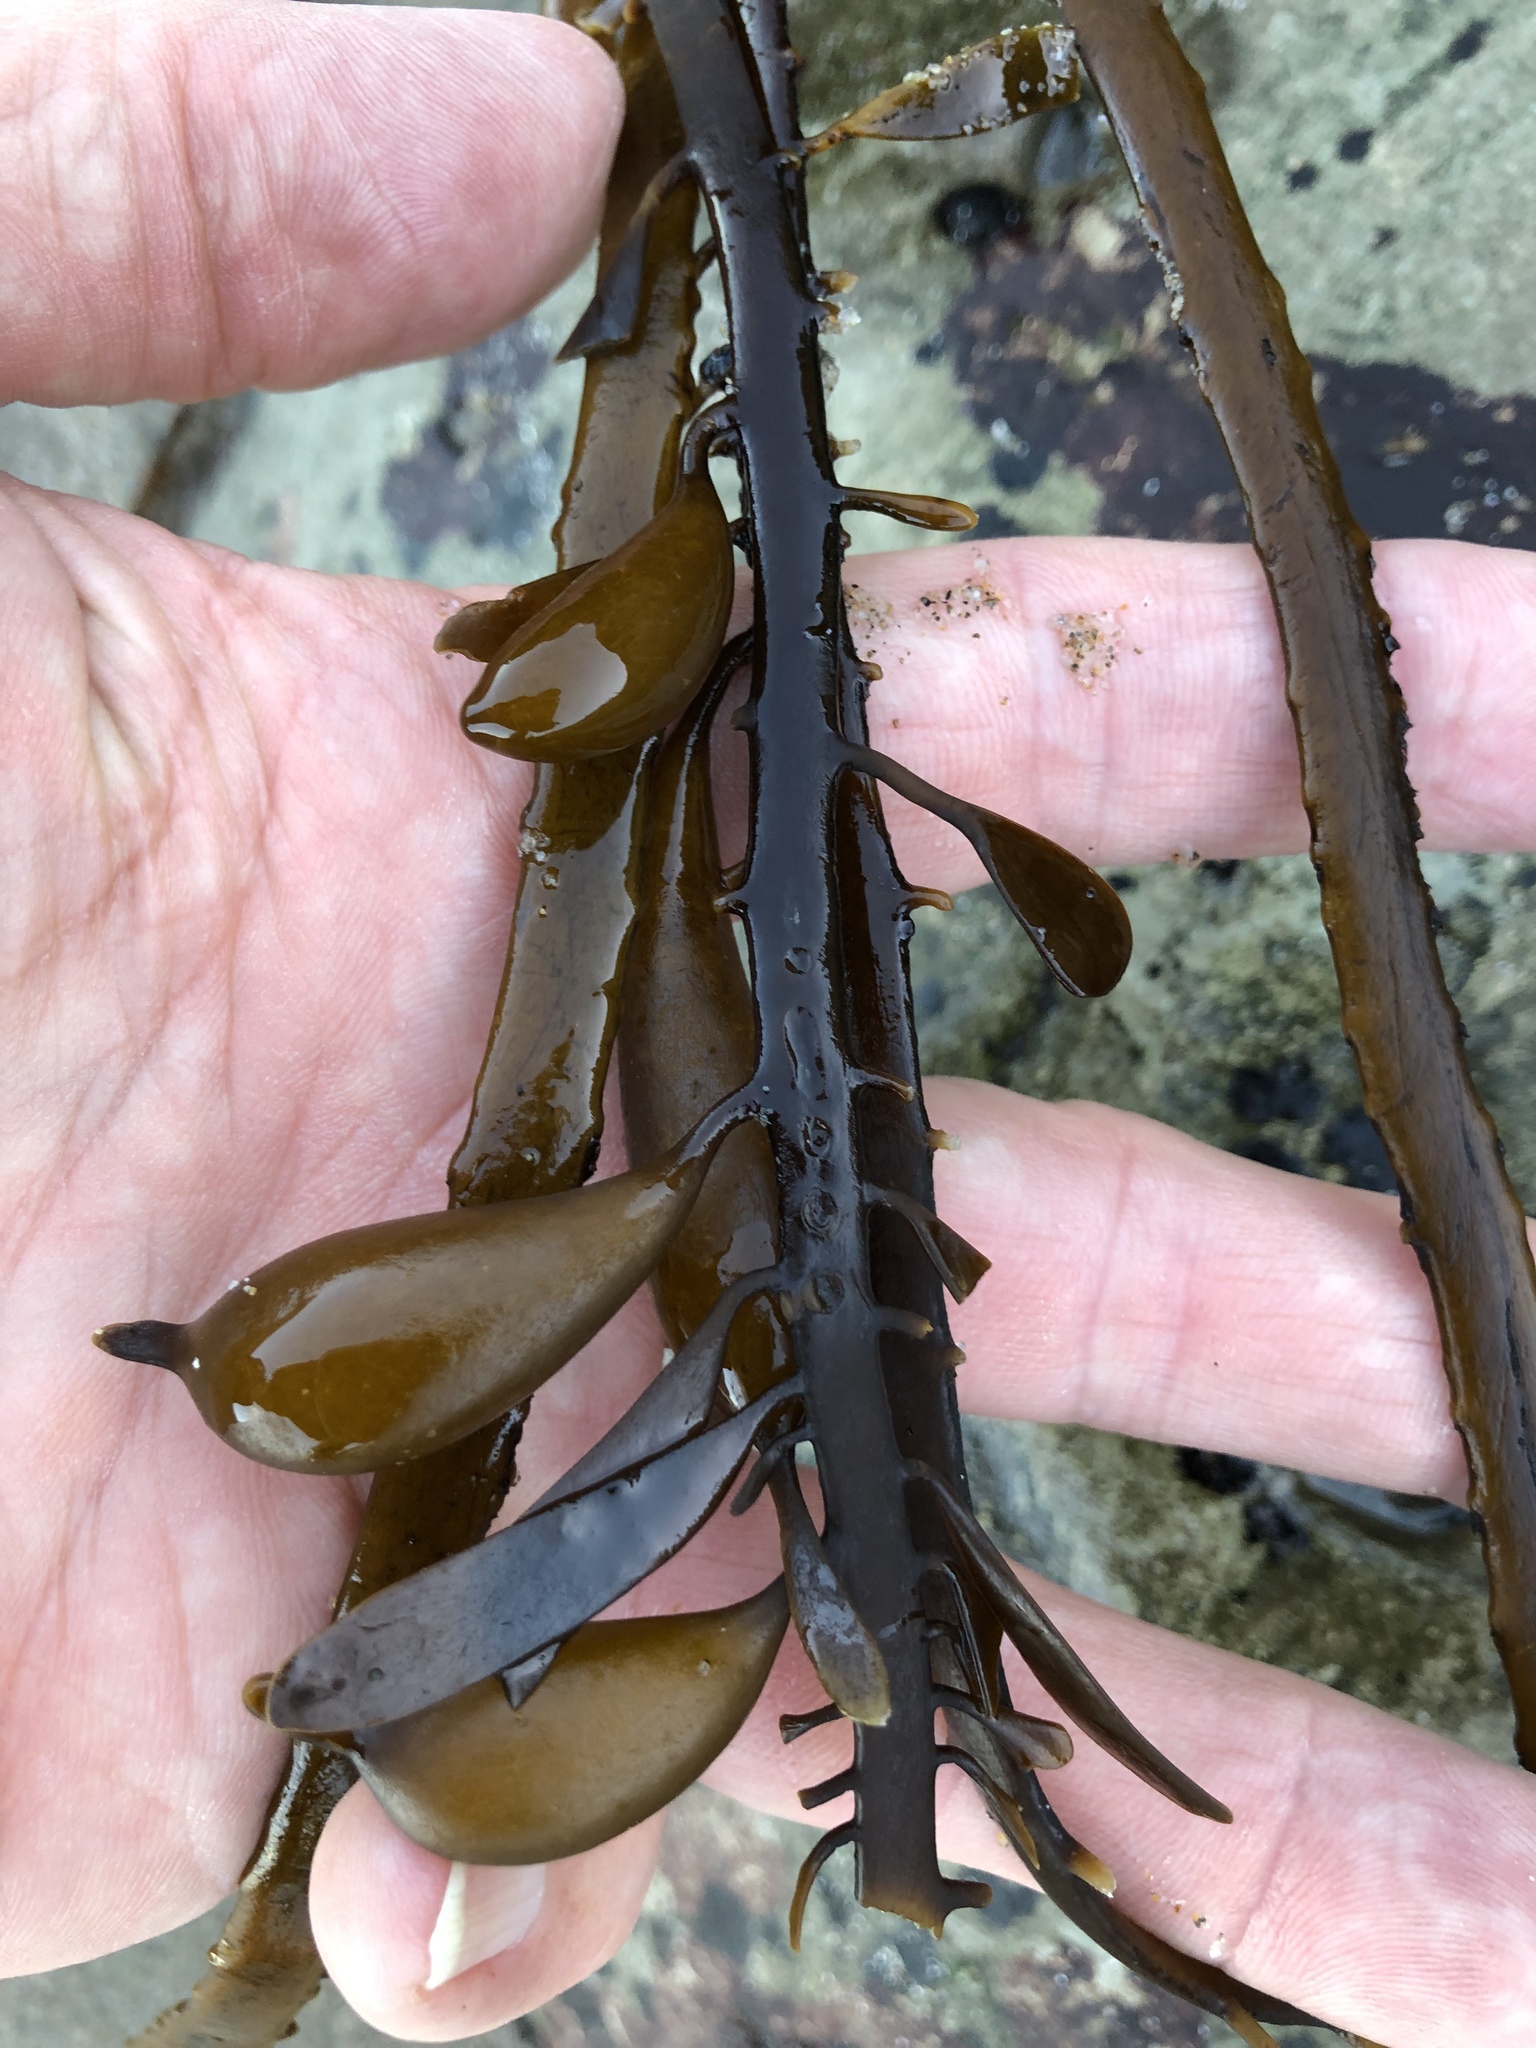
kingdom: Chromista
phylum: Ochrophyta
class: Phaeophyceae
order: Laminariales
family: Lessoniaceae
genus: Egregia
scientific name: Egregia menziesii
